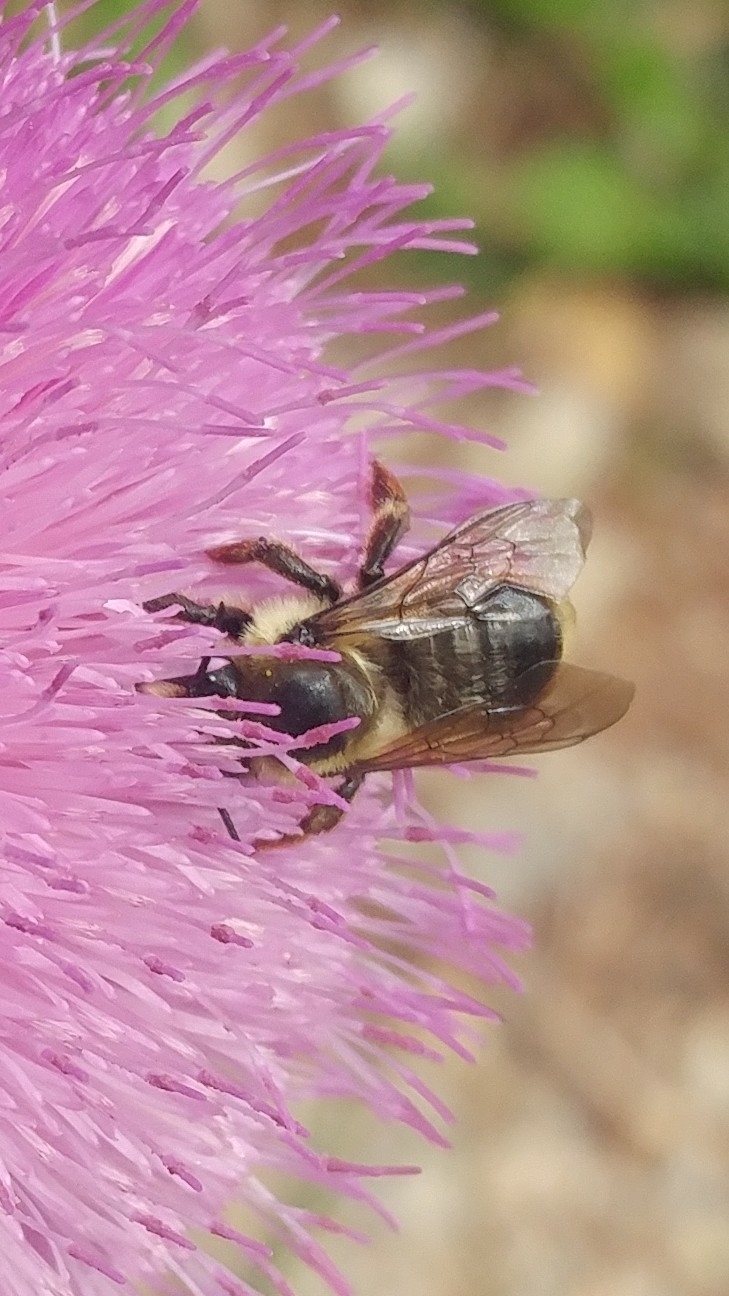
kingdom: Animalia
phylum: Arthropoda
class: Insecta
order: Hymenoptera
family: Apidae
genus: Apis
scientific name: Apis mellifera
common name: Honey bee
